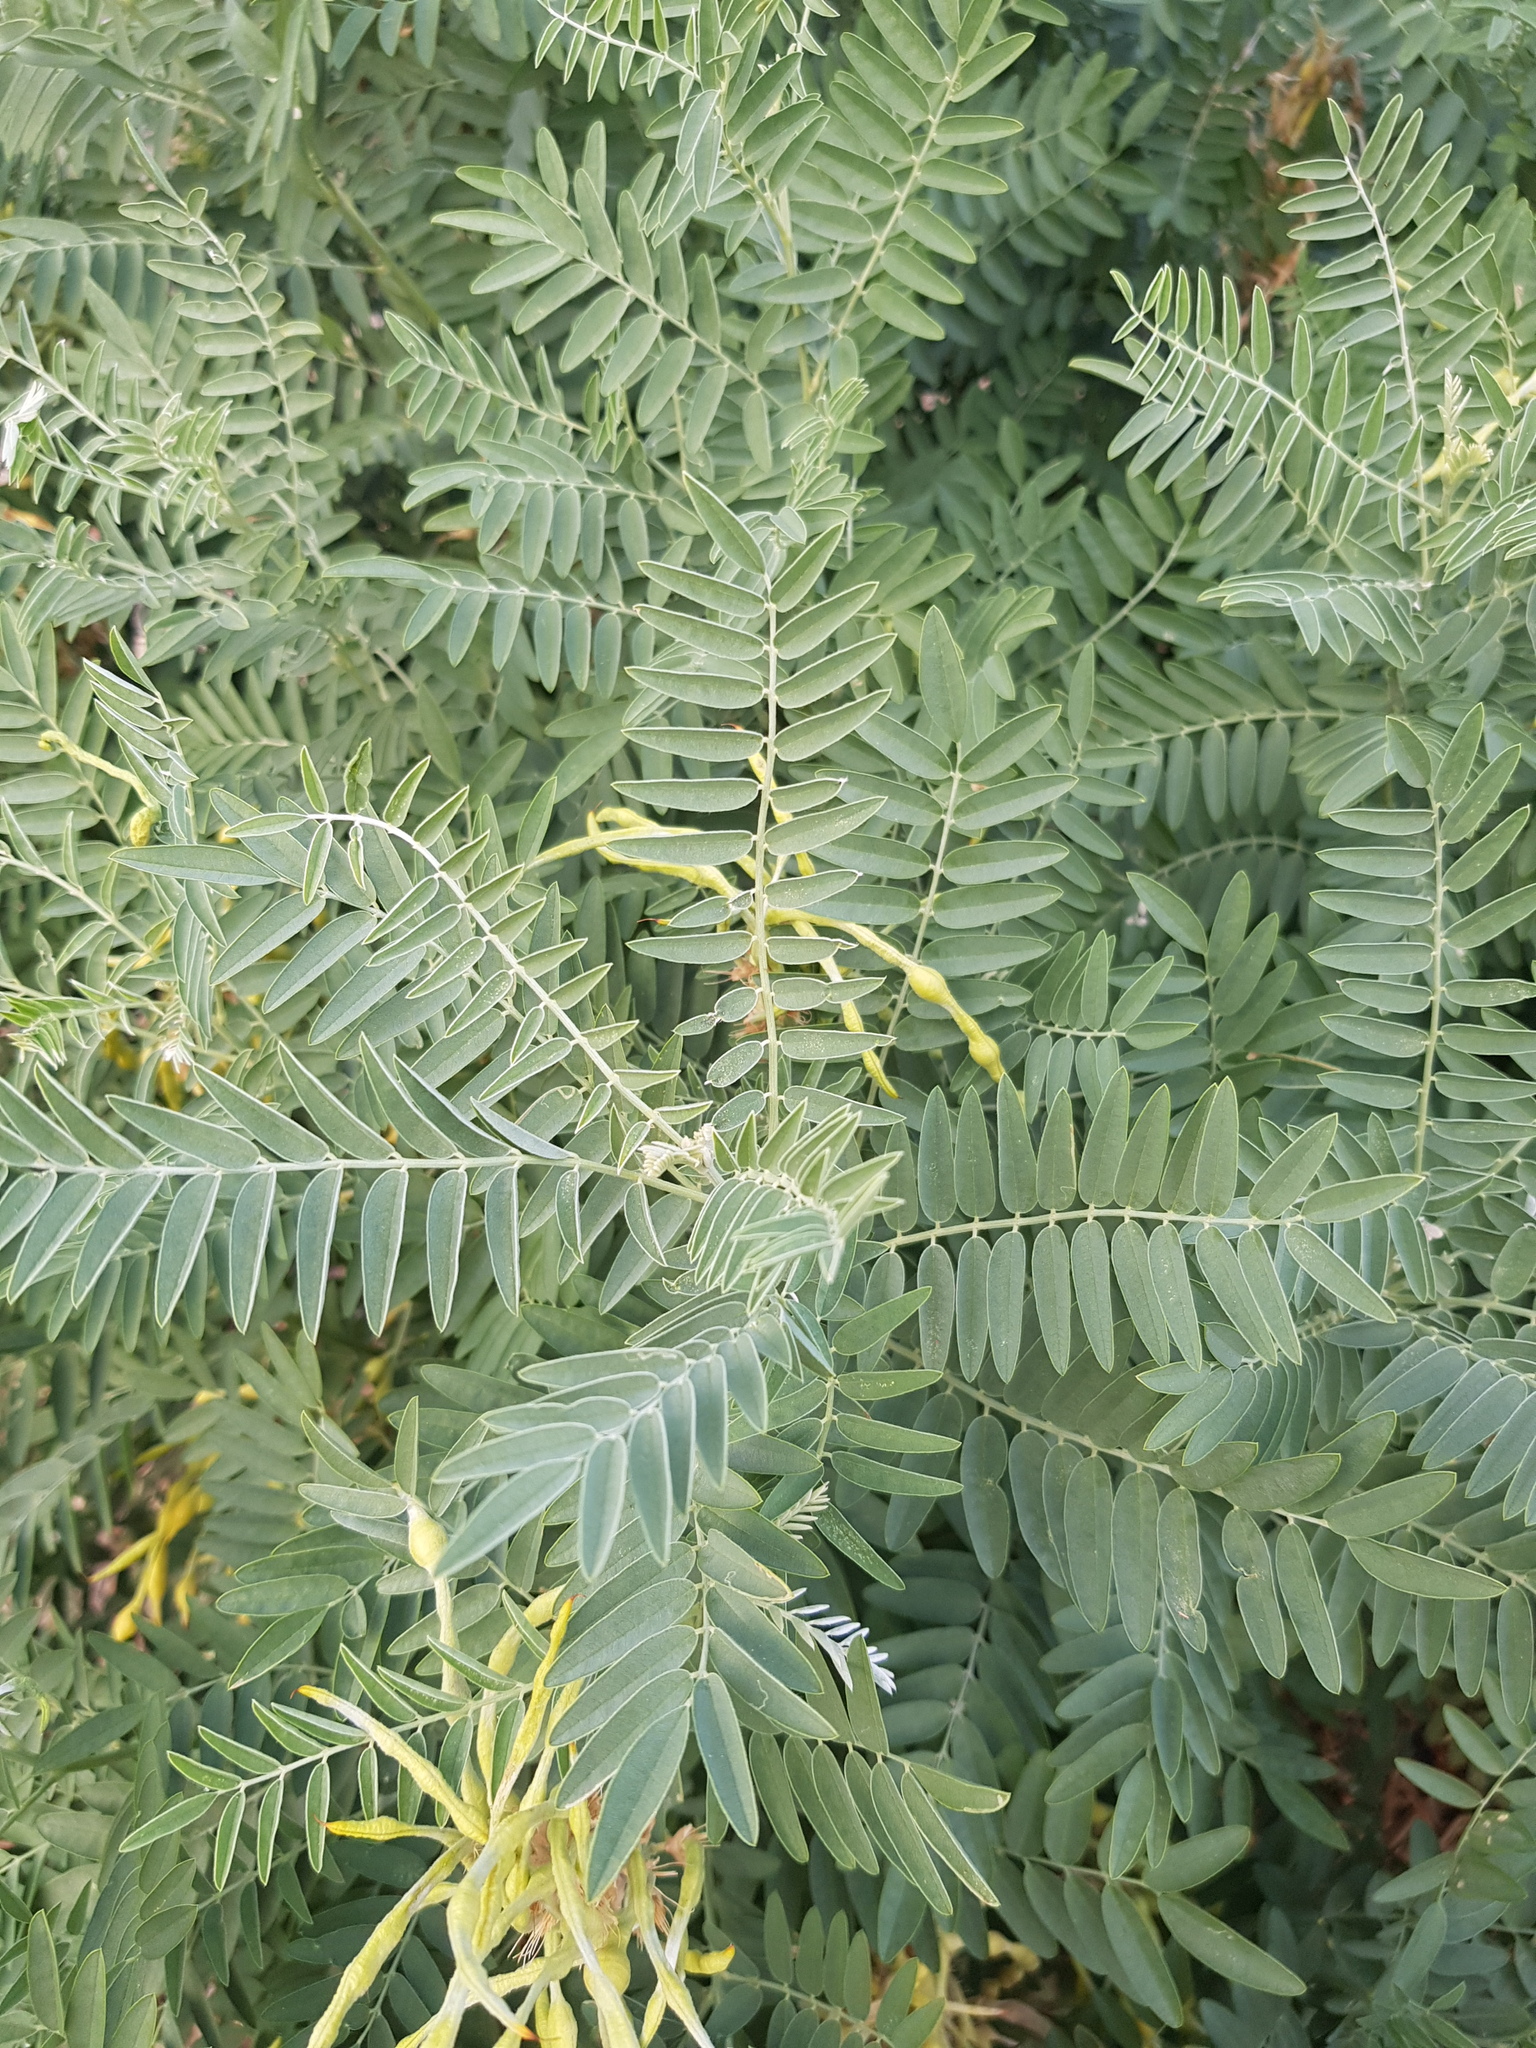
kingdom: Plantae
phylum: Tracheophyta
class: Magnoliopsida
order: Fabales
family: Fabaceae
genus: Sophora
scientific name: Sophora alopecuroides
